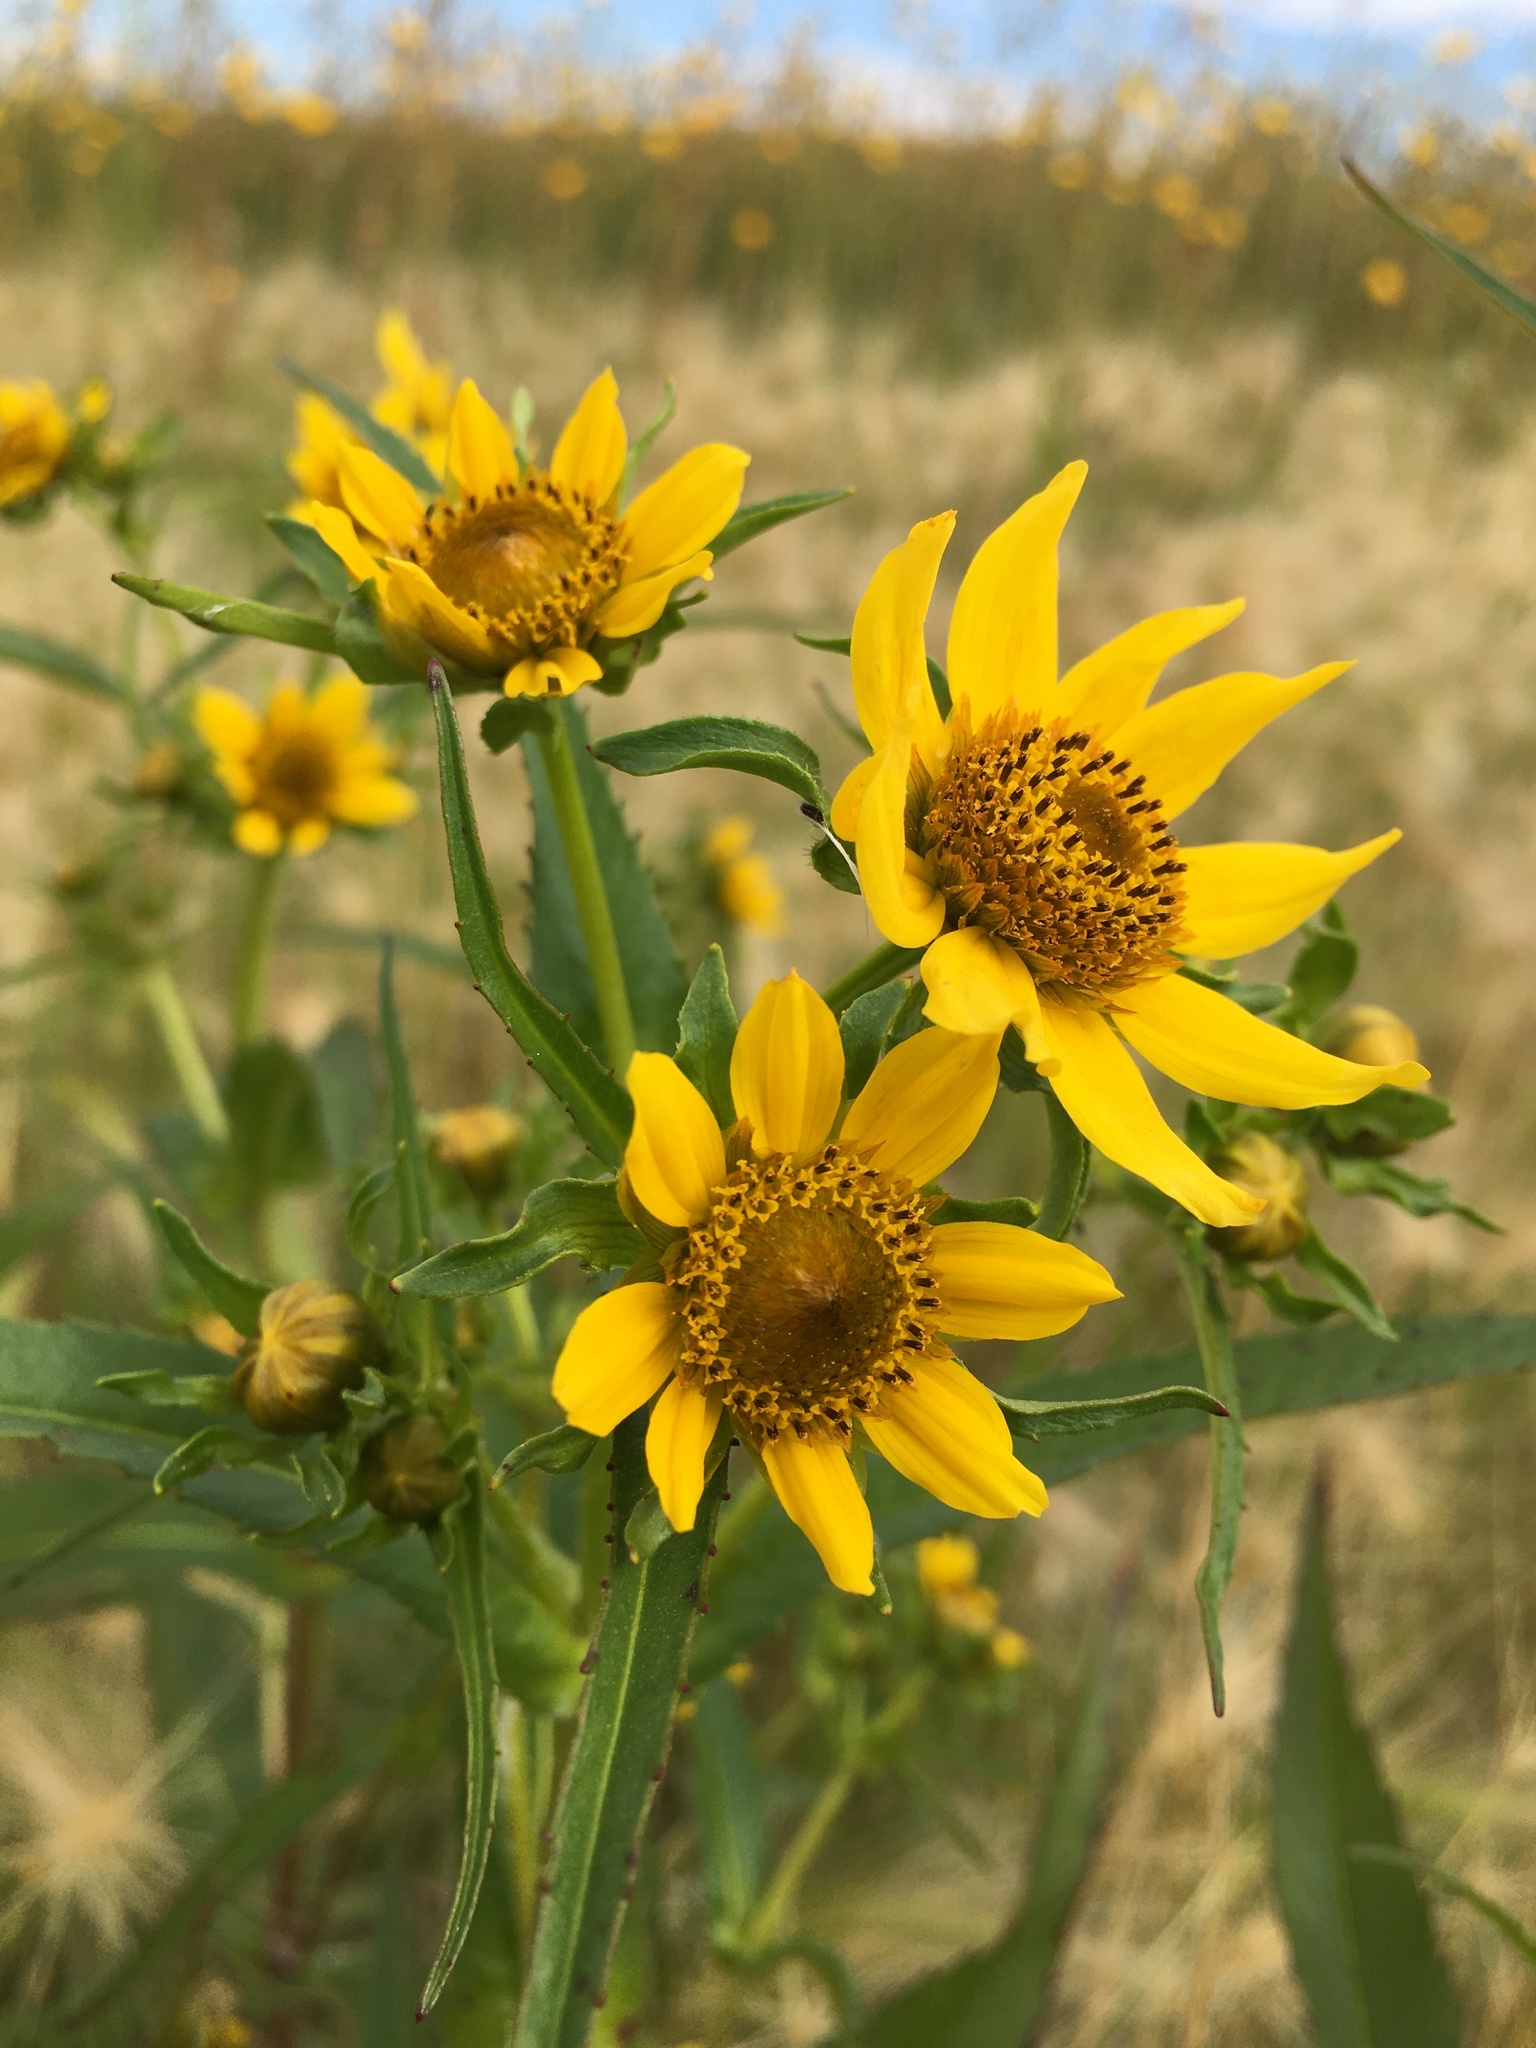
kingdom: Plantae
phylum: Tracheophyta
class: Magnoliopsida
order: Asterales
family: Asteraceae
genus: Bidens
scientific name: Bidens cernua
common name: Nodding bur-marigold
